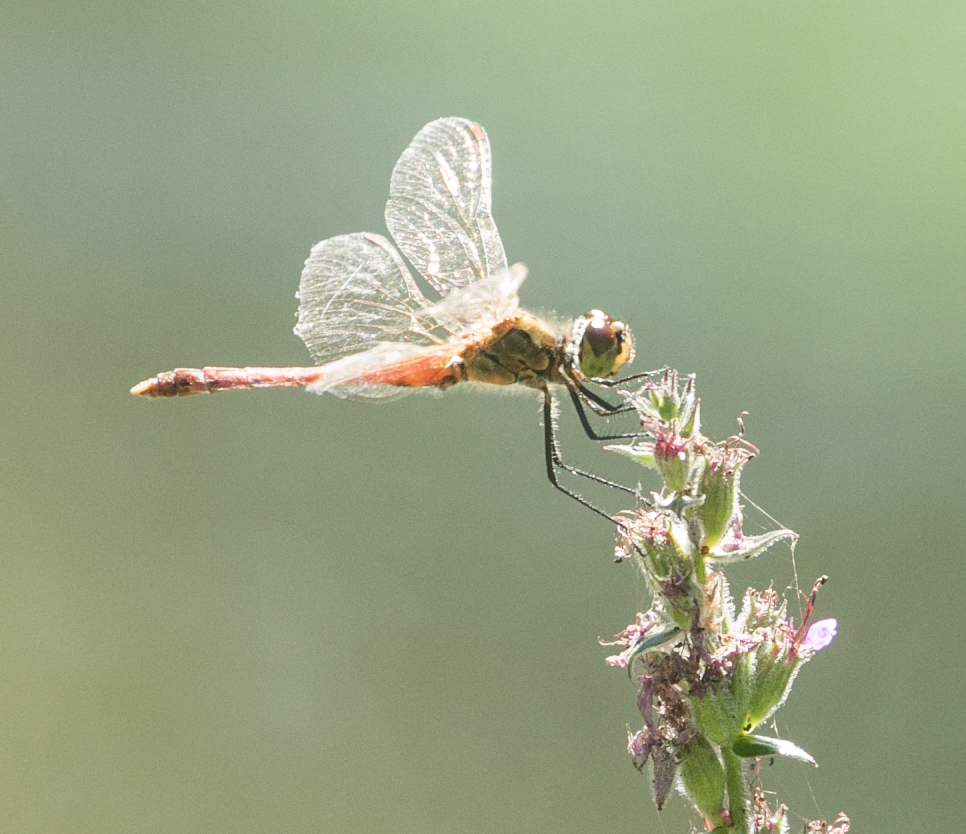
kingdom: Animalia
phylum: Arthropoda
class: Insecta
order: Odonata
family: Libellulidae
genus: Sympetrum
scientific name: Sympetrum depressiusculum
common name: Spotted darter
